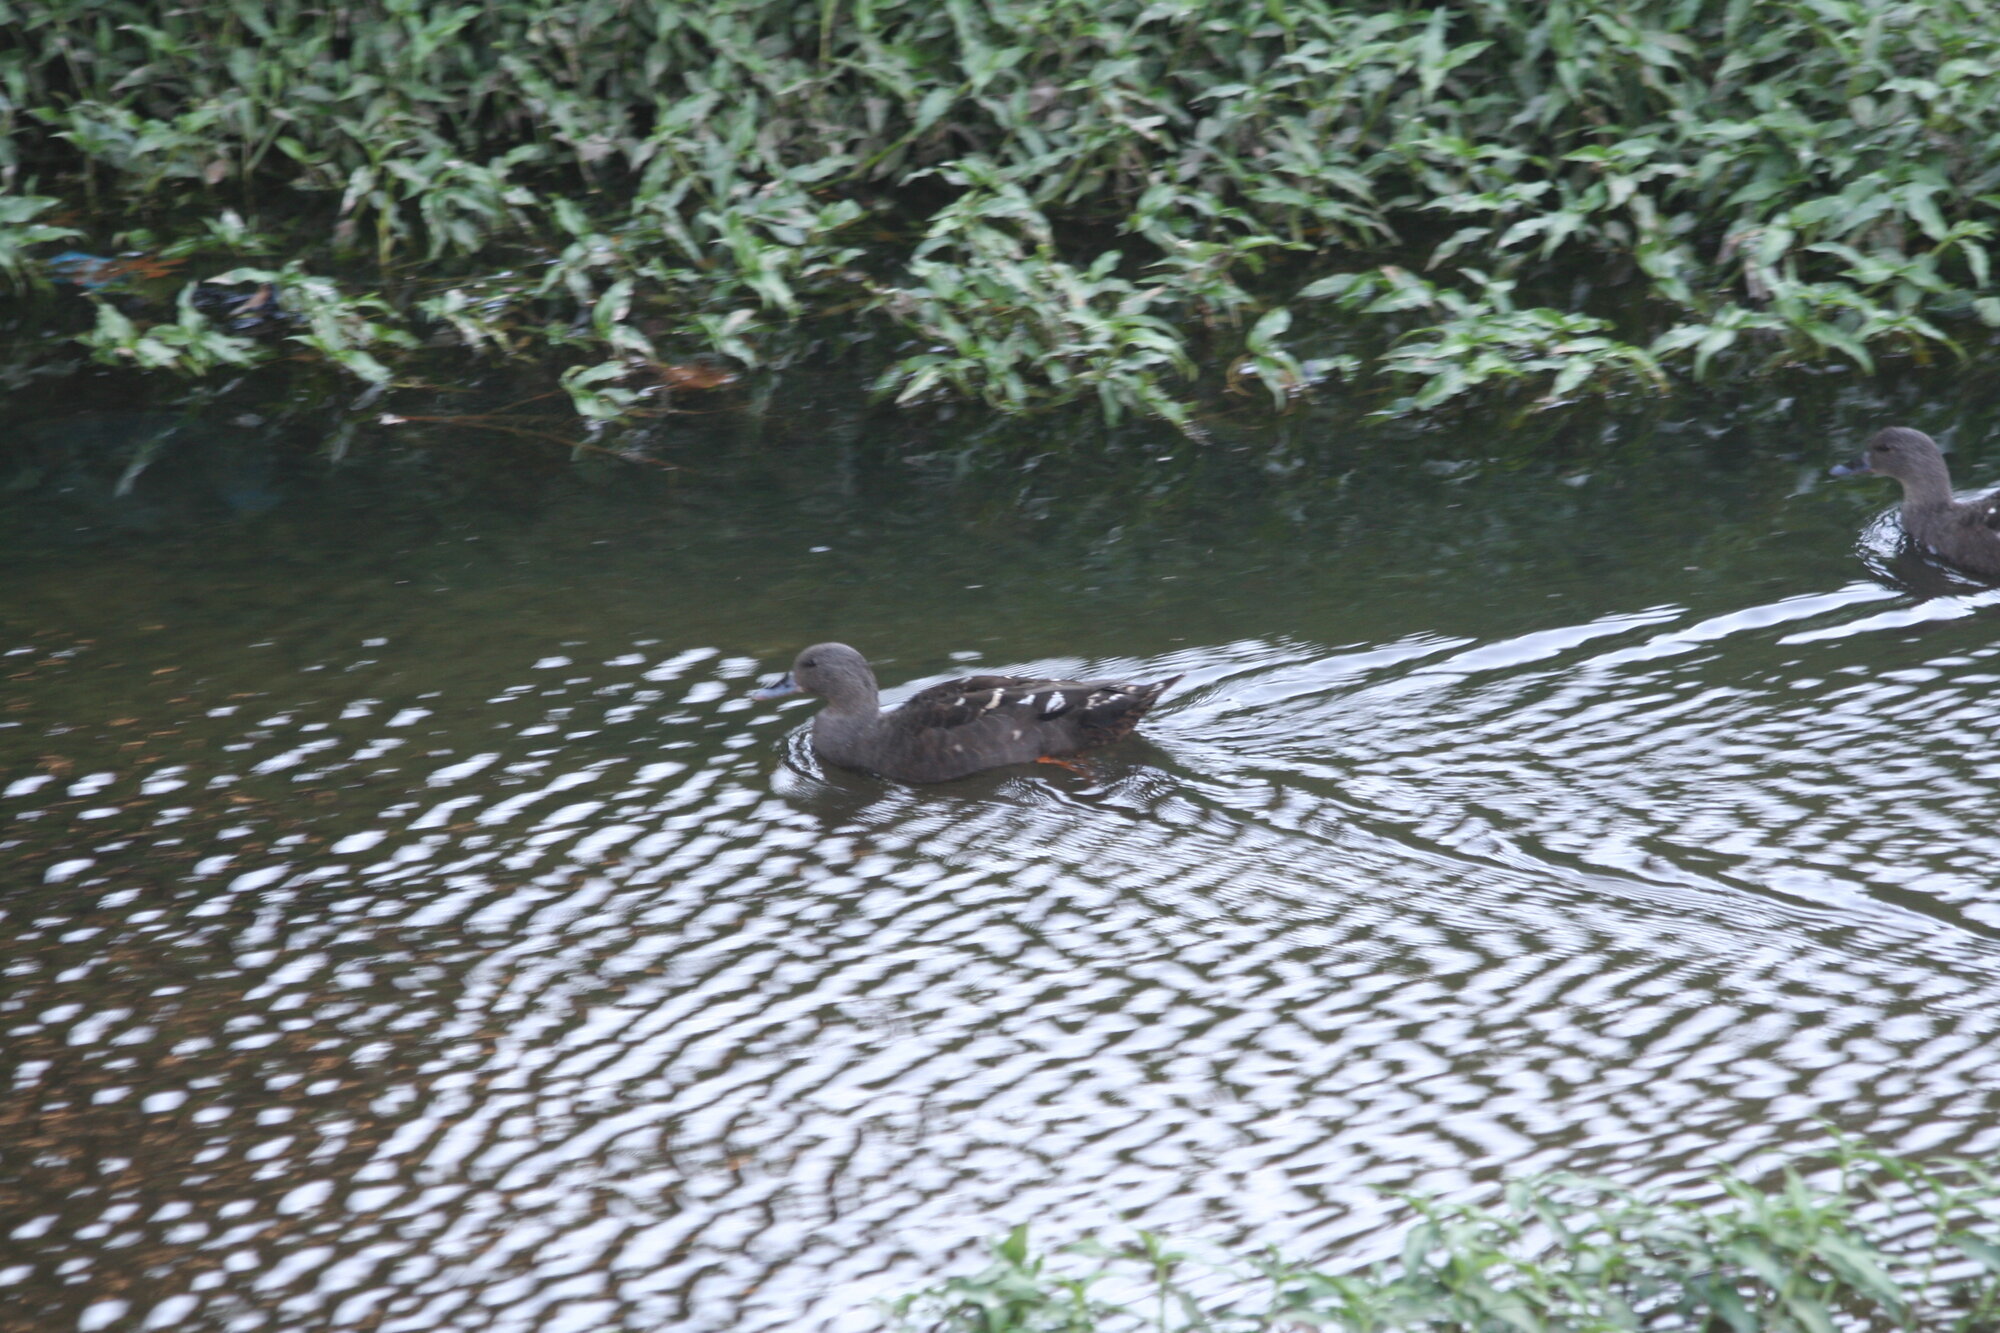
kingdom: Animalia
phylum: Chordata
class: Aves
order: Anseriformes
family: Anatidae
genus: Anas
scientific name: Anas sparsa
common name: African black duck
